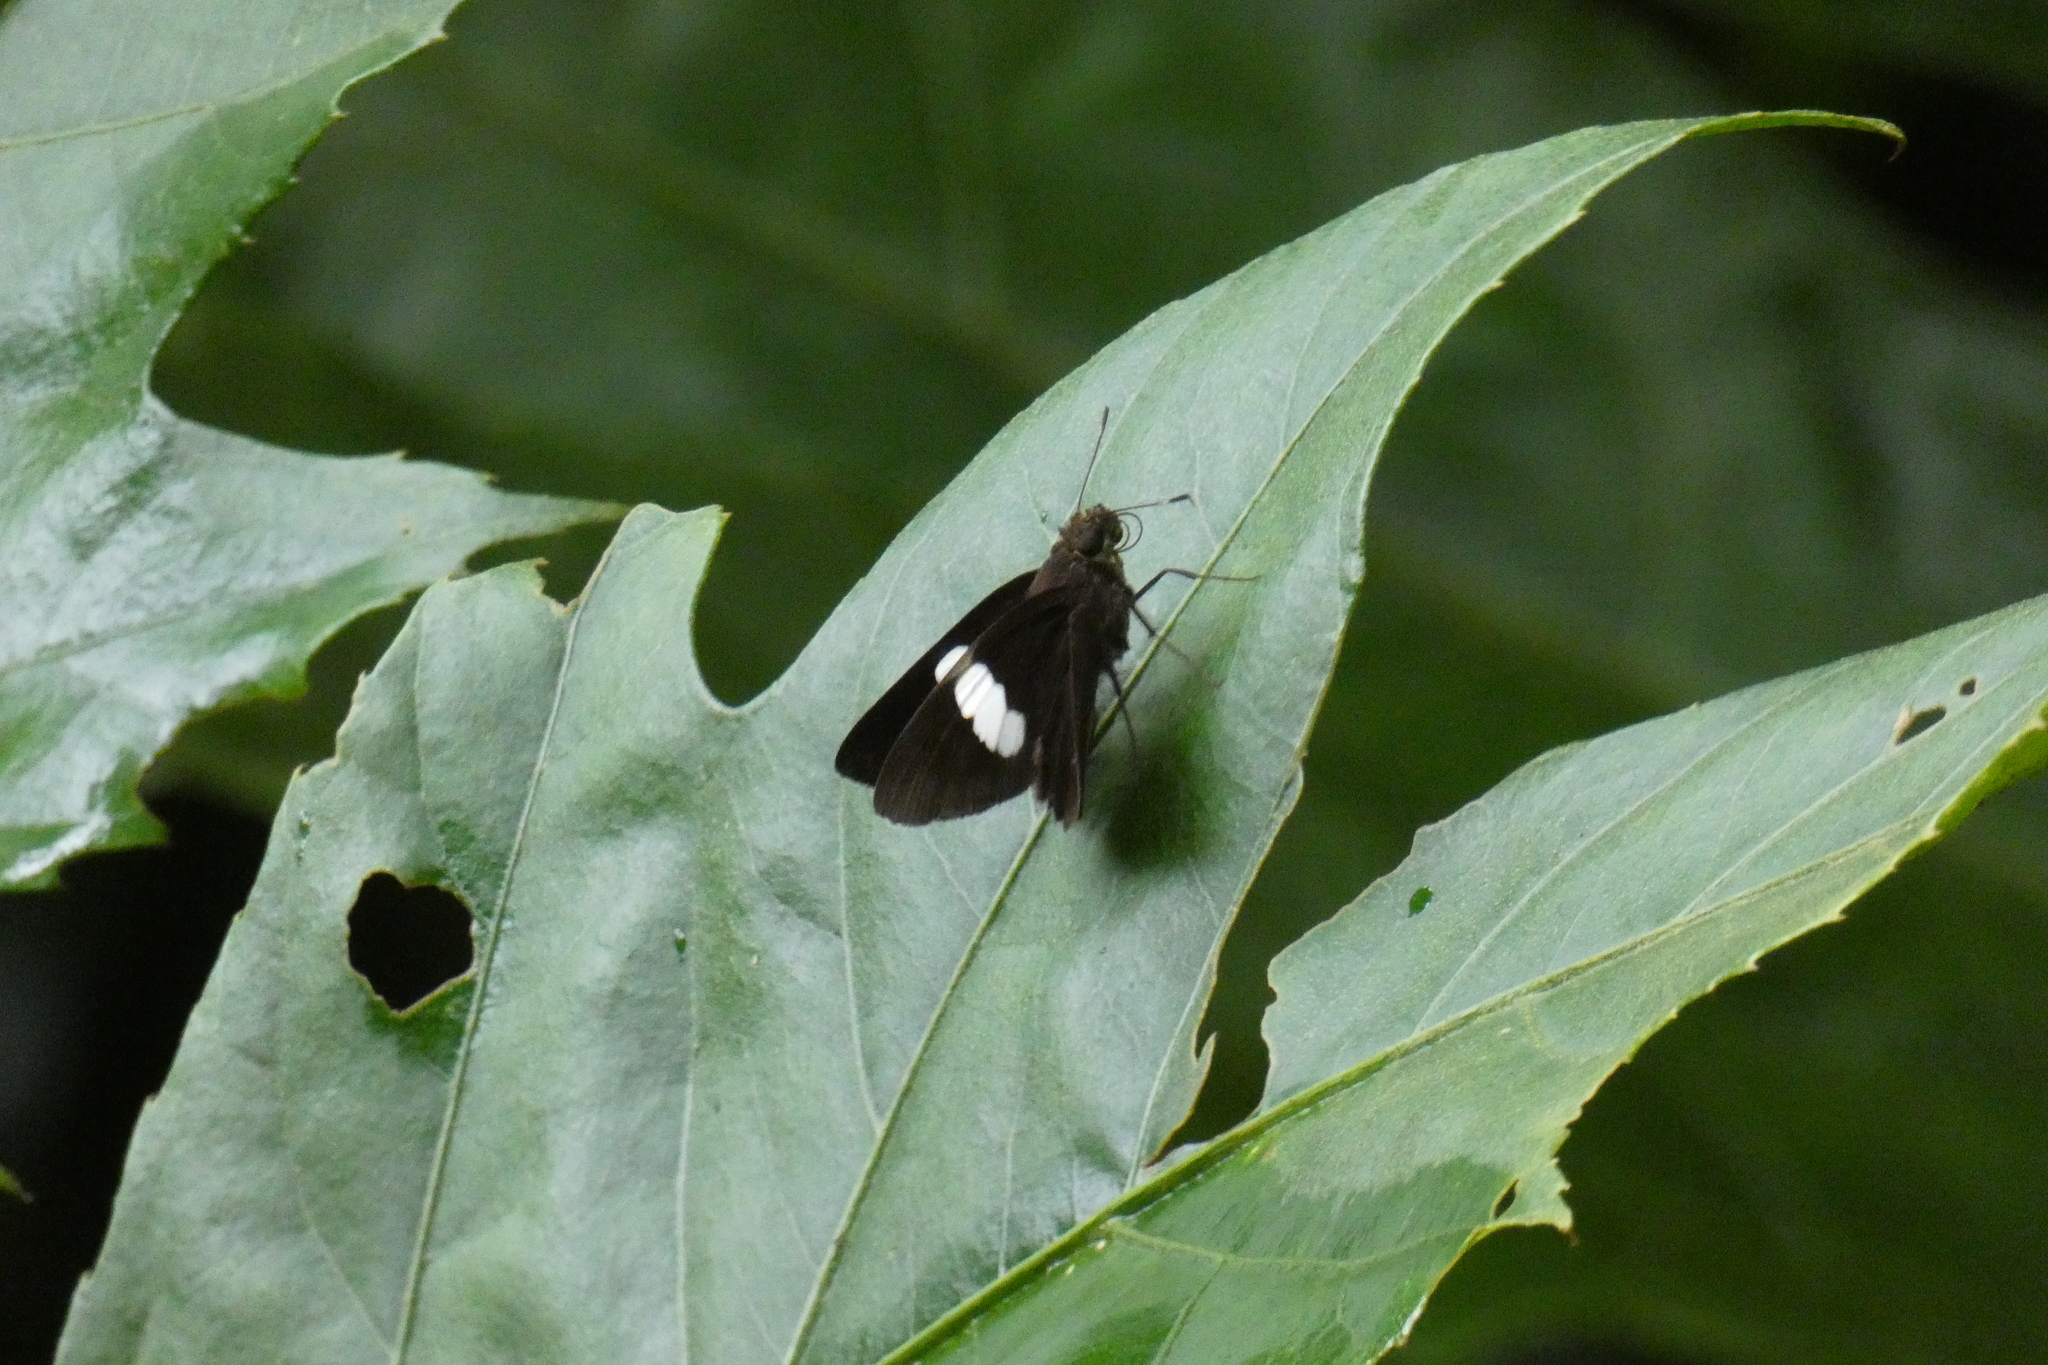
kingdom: Animalia
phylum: Arthropoda
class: Insecta
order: Lepidoptera
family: Hesperiidae
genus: Notocrypta
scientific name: Notocrypta paralysos
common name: Common banded demon
